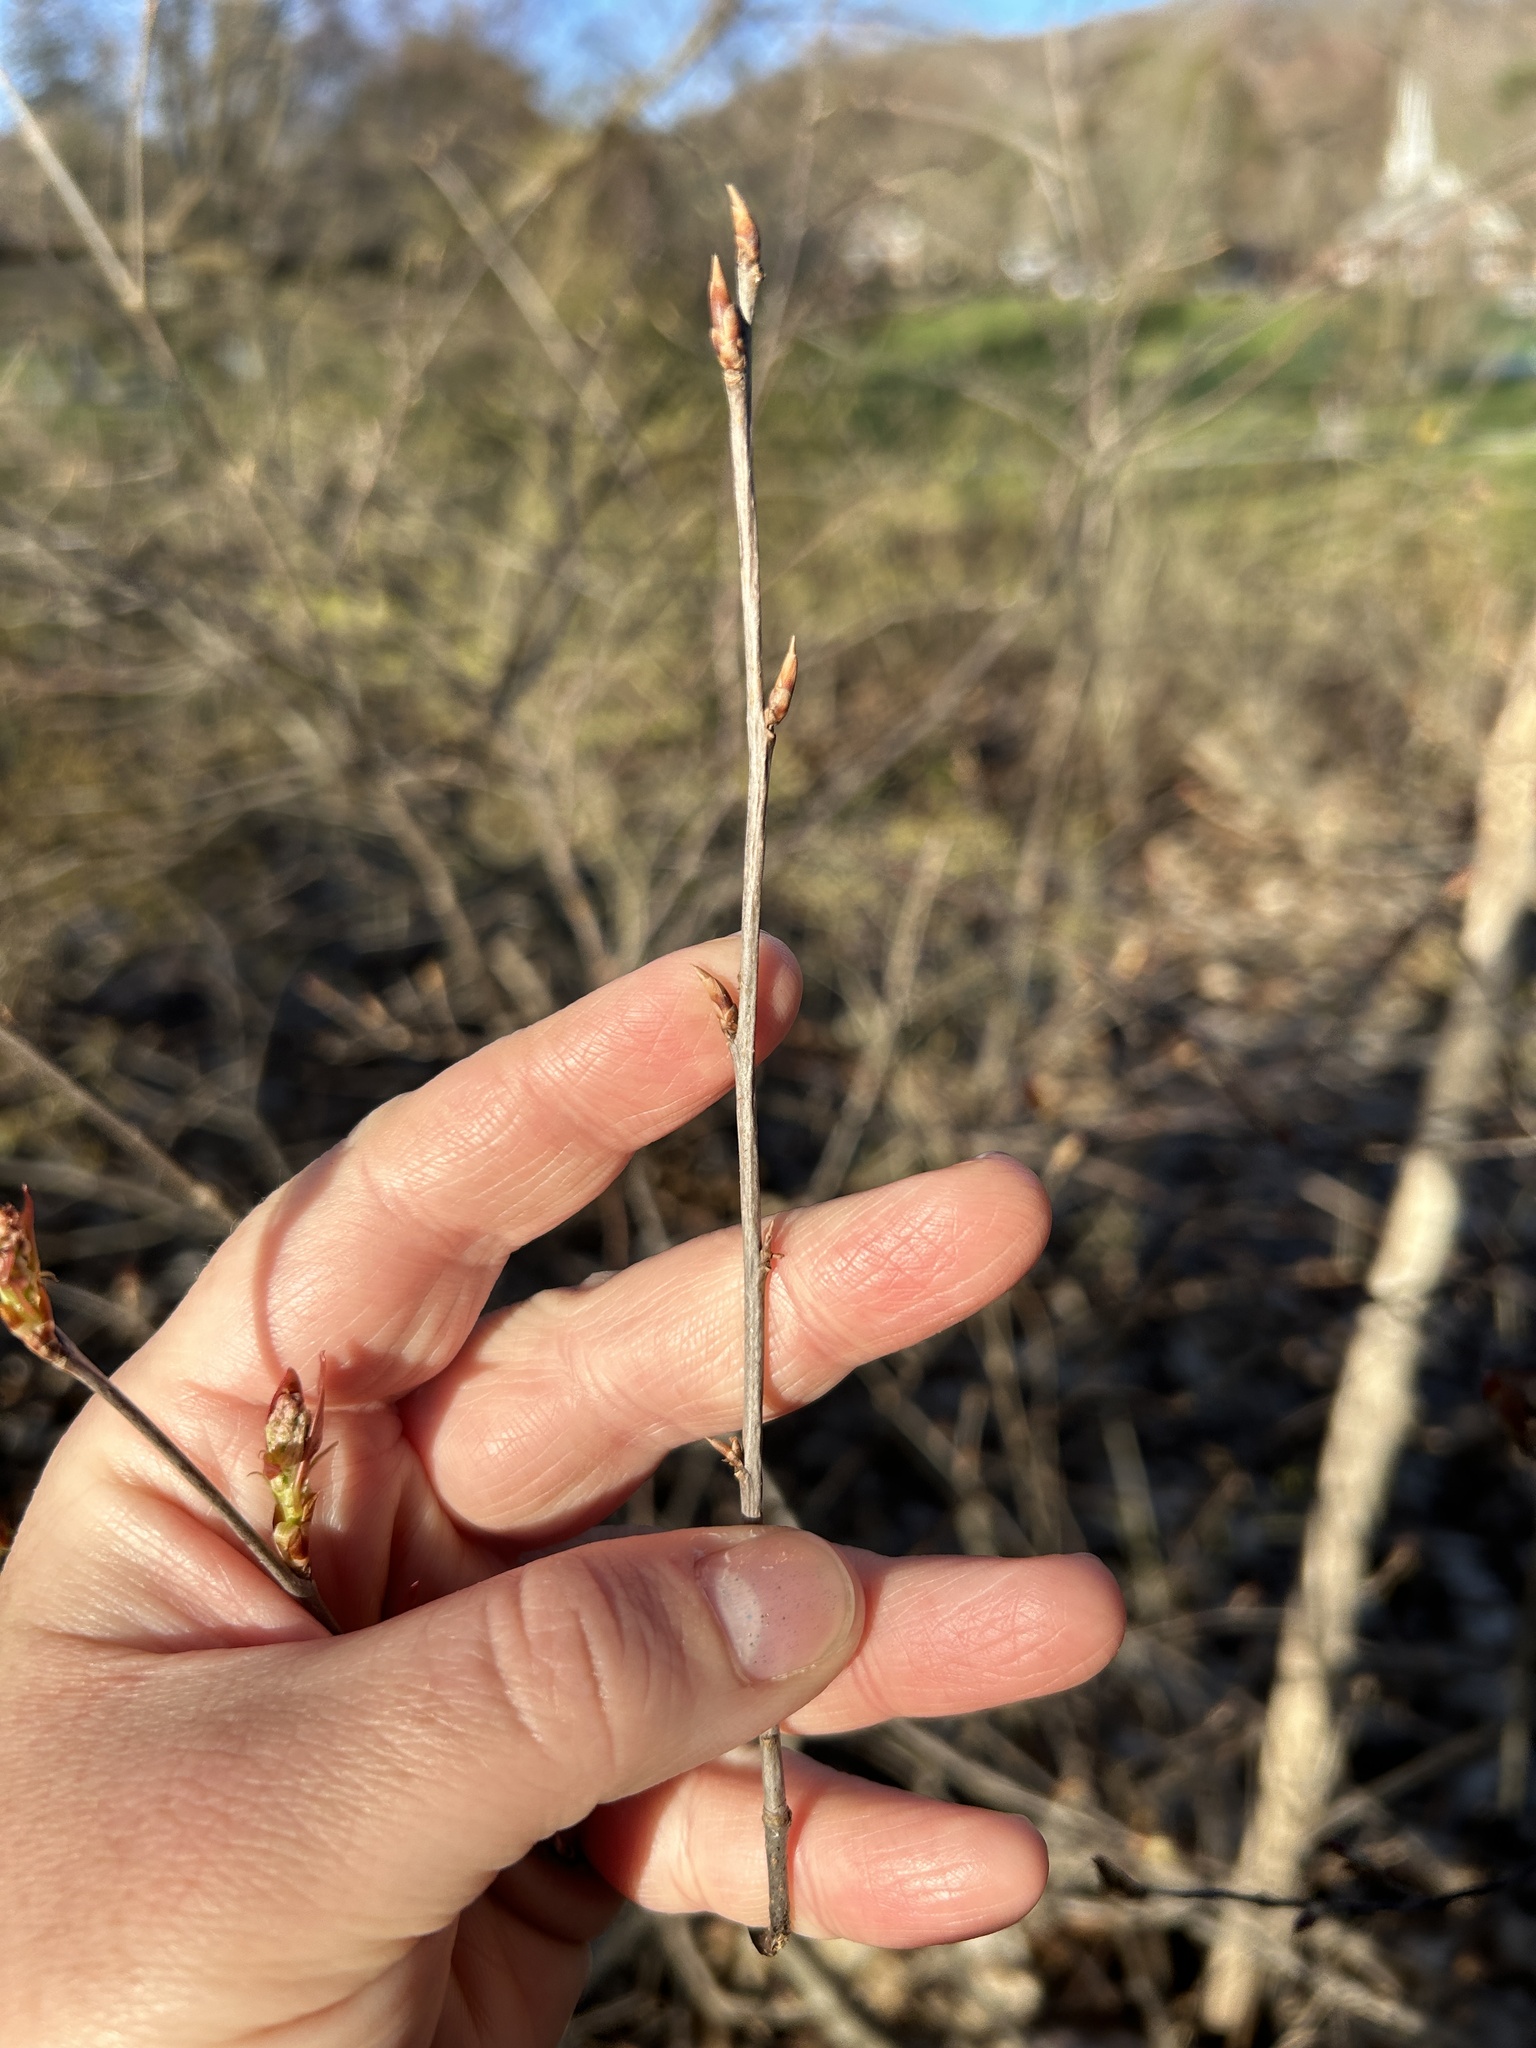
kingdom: Plantae
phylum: Tracheophyta
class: Magnoliopsida
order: Rosales
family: Rosaceae
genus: Prunus
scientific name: Prunus virginiana
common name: Chokecherry
